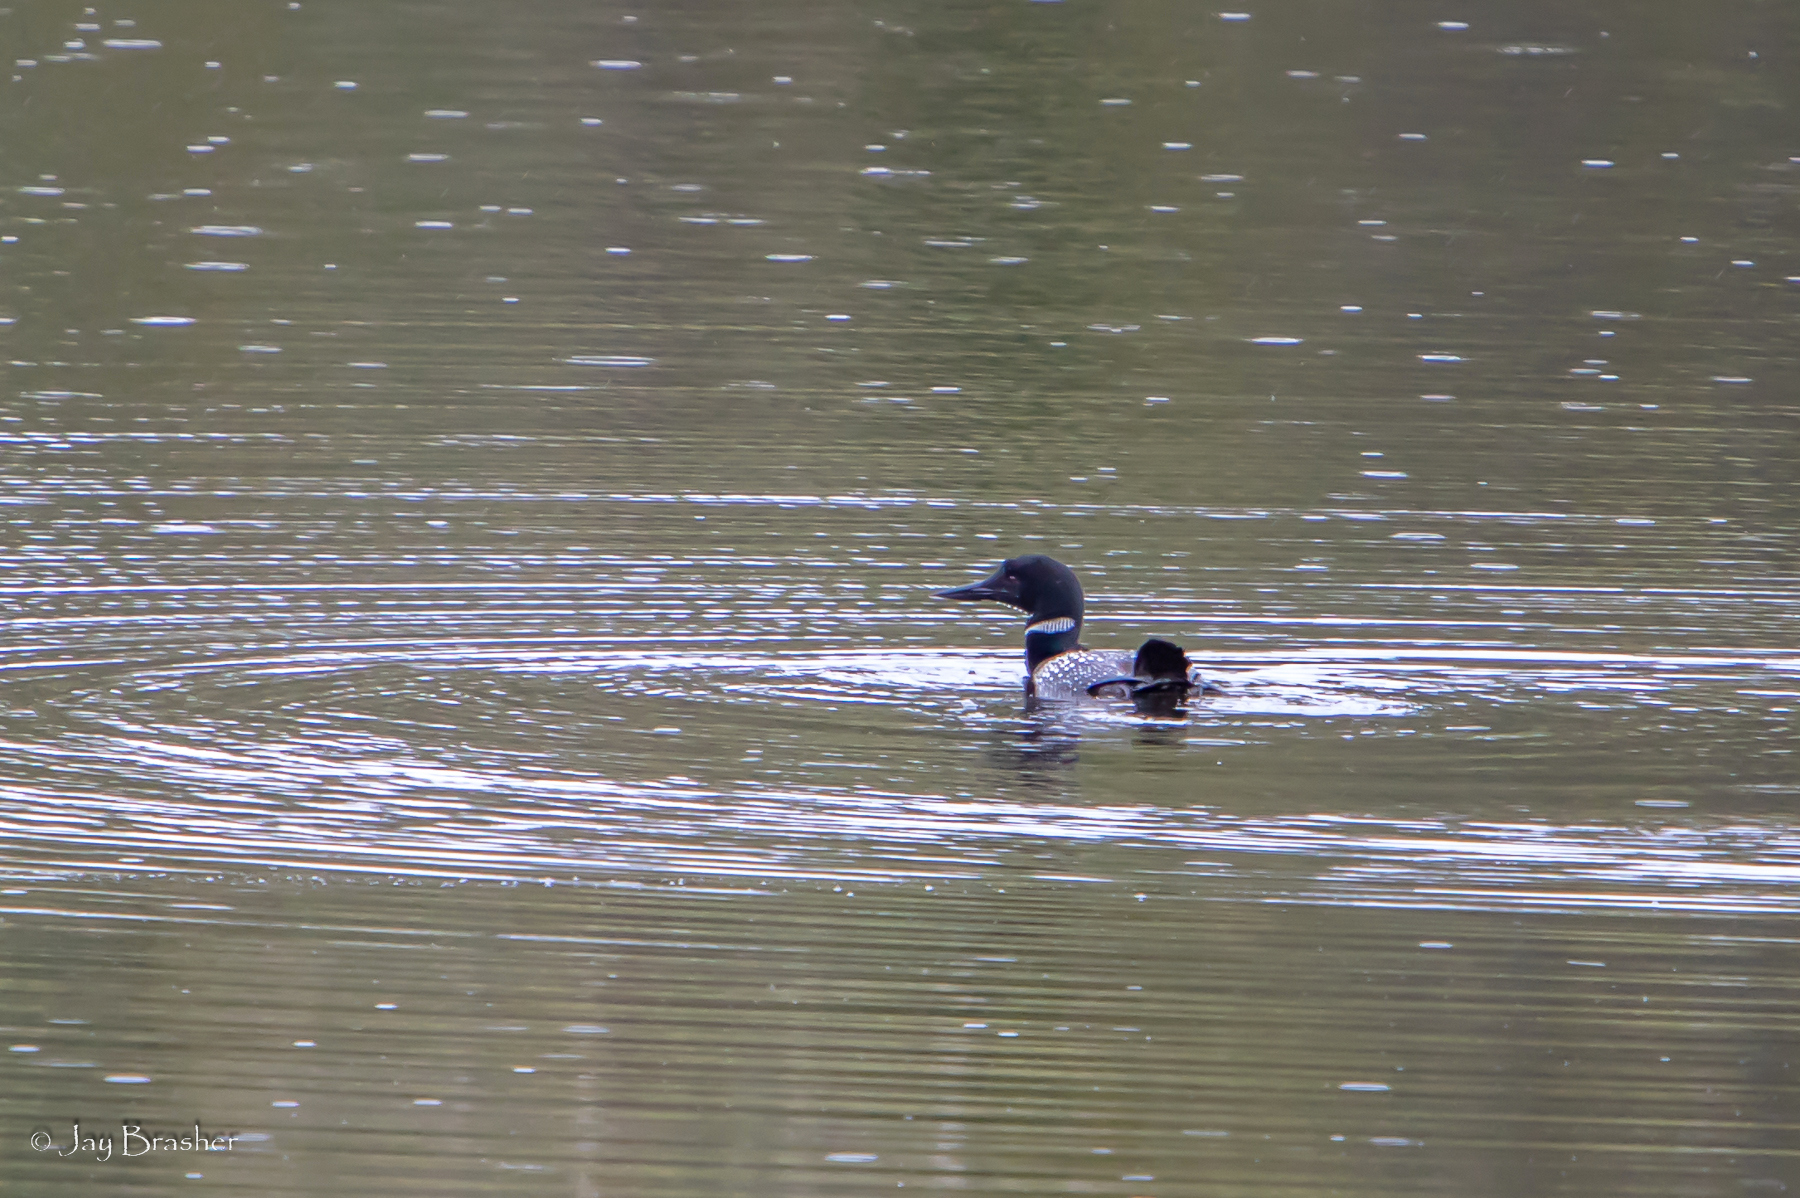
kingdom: Animalia
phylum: Chordata
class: Aves
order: Gaviiformes
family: Gaviidae
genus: Gavia
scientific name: Gavia immer
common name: Common loon
